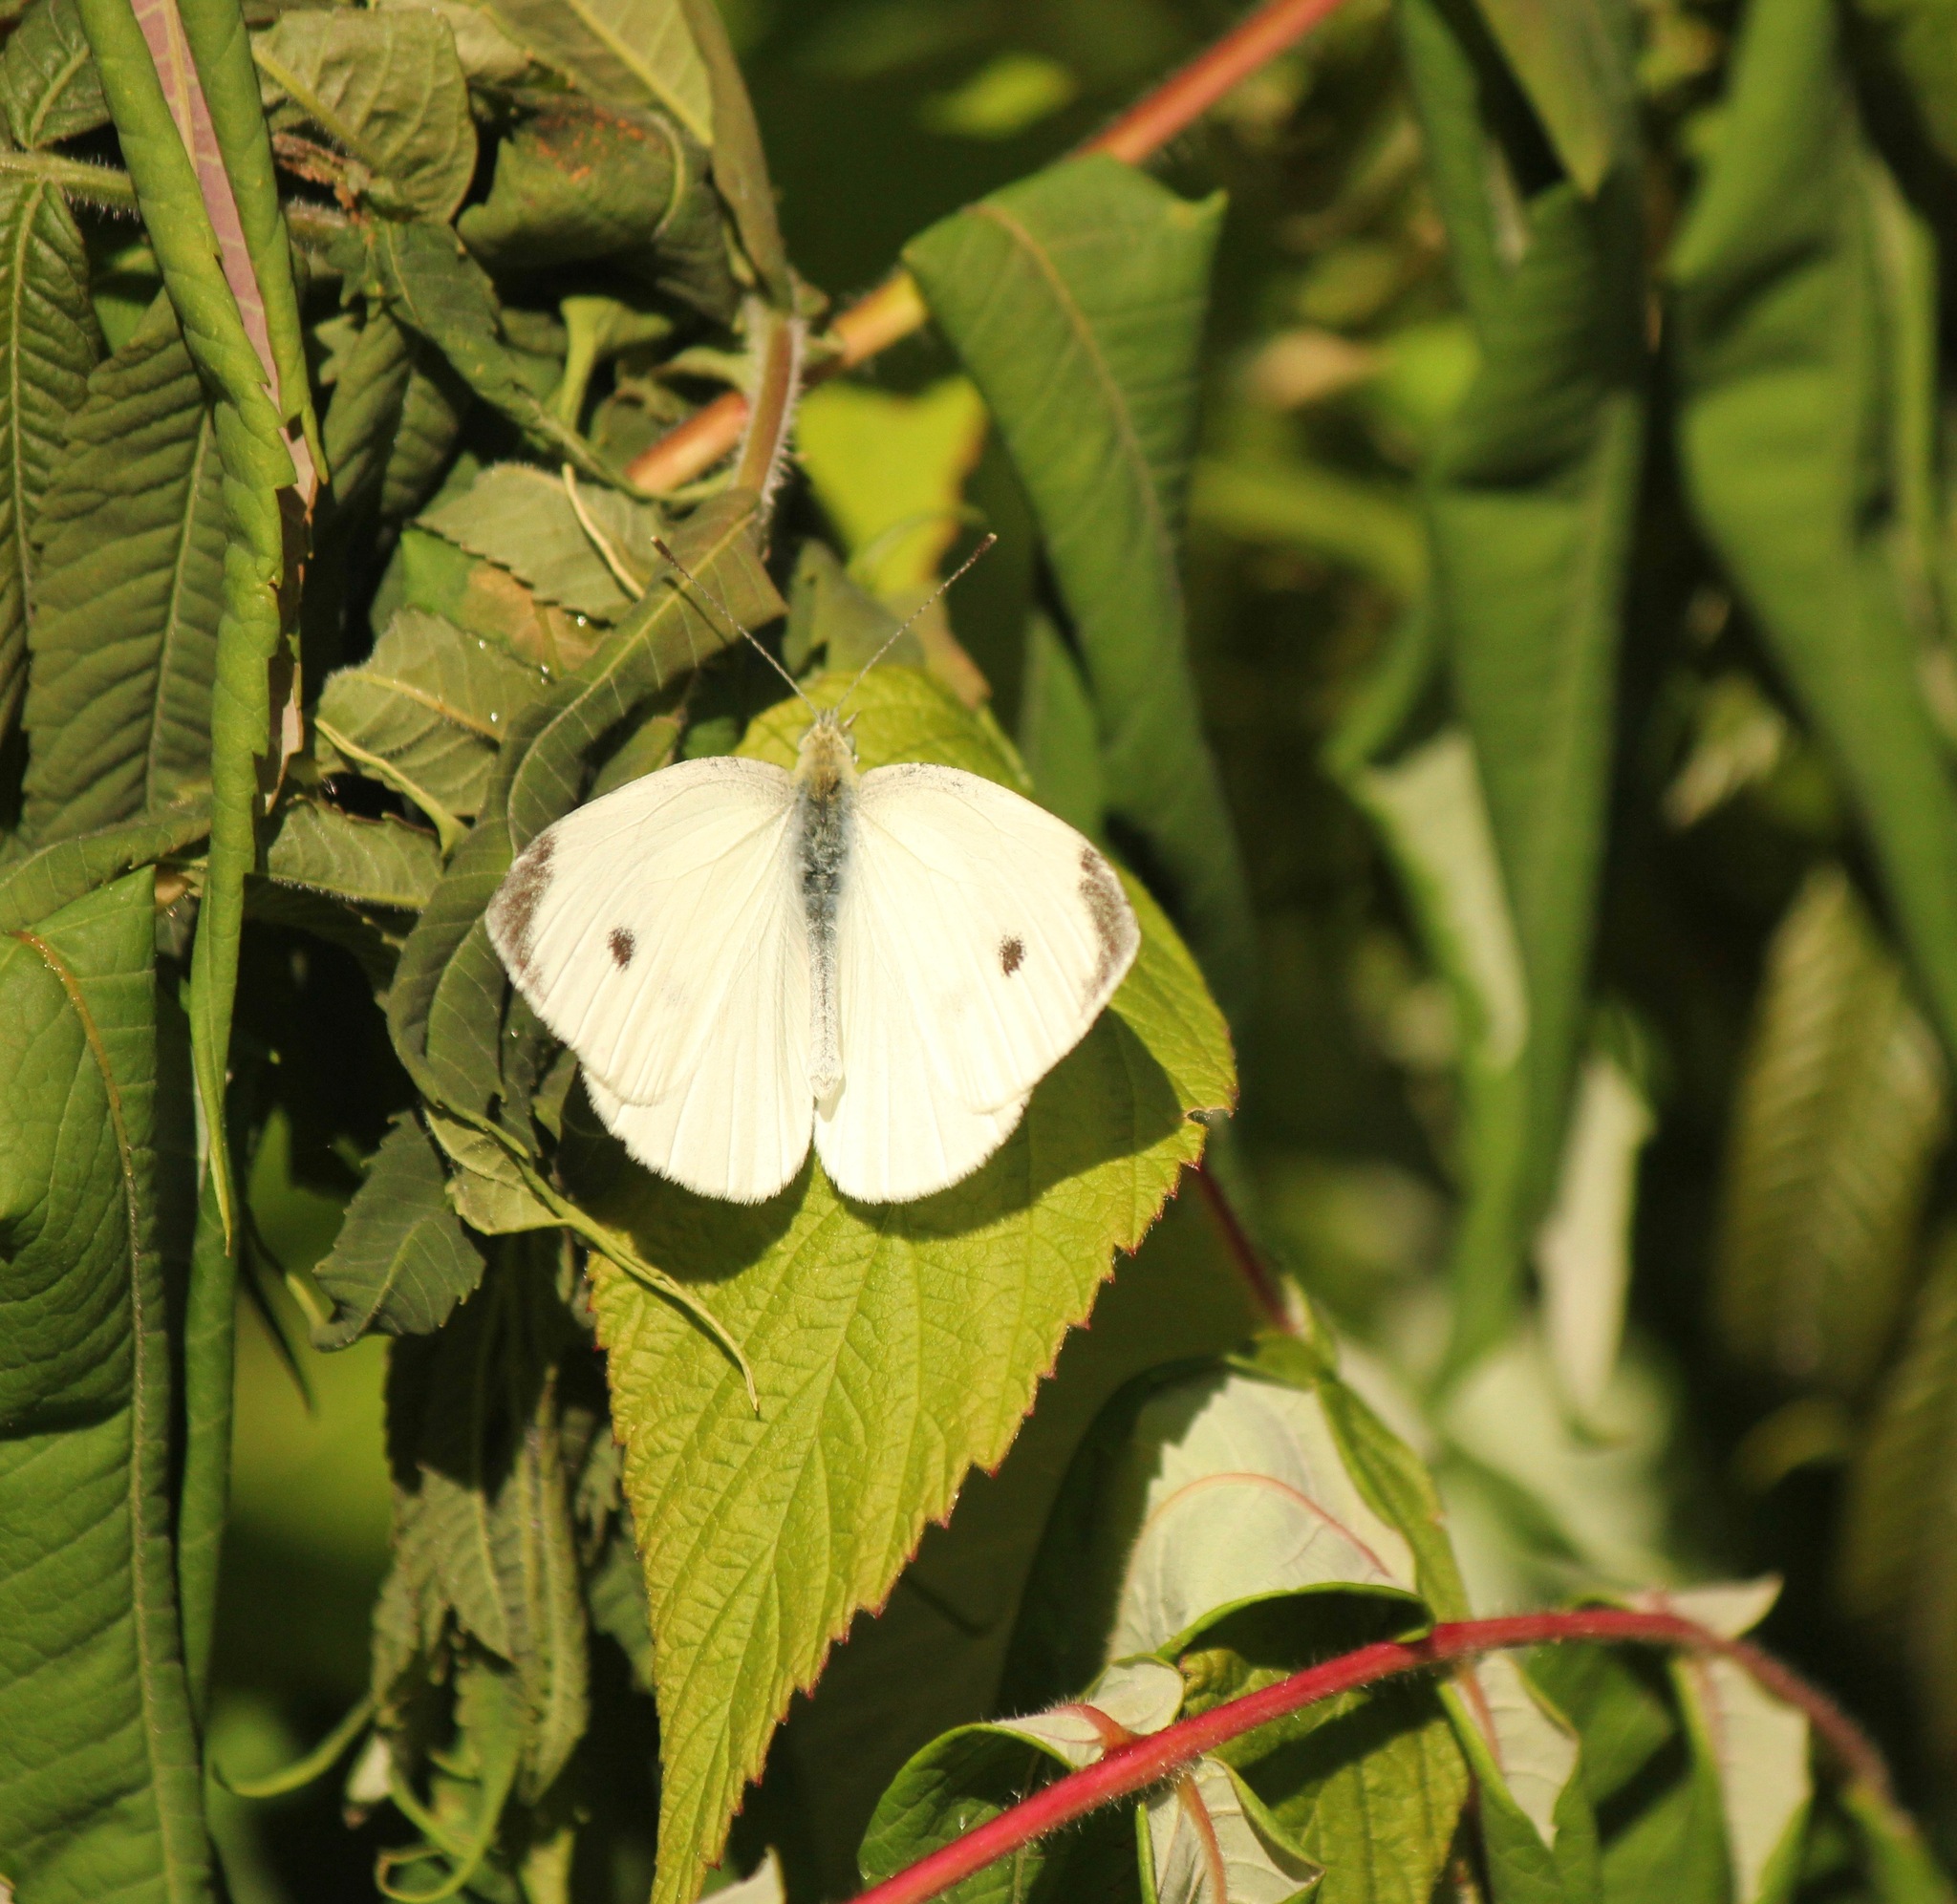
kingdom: Animalia
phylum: Arthropoda
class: Insecta
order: Lepidoptera
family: Pieridae
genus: Pieris
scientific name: Pieris rapae
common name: Small white
